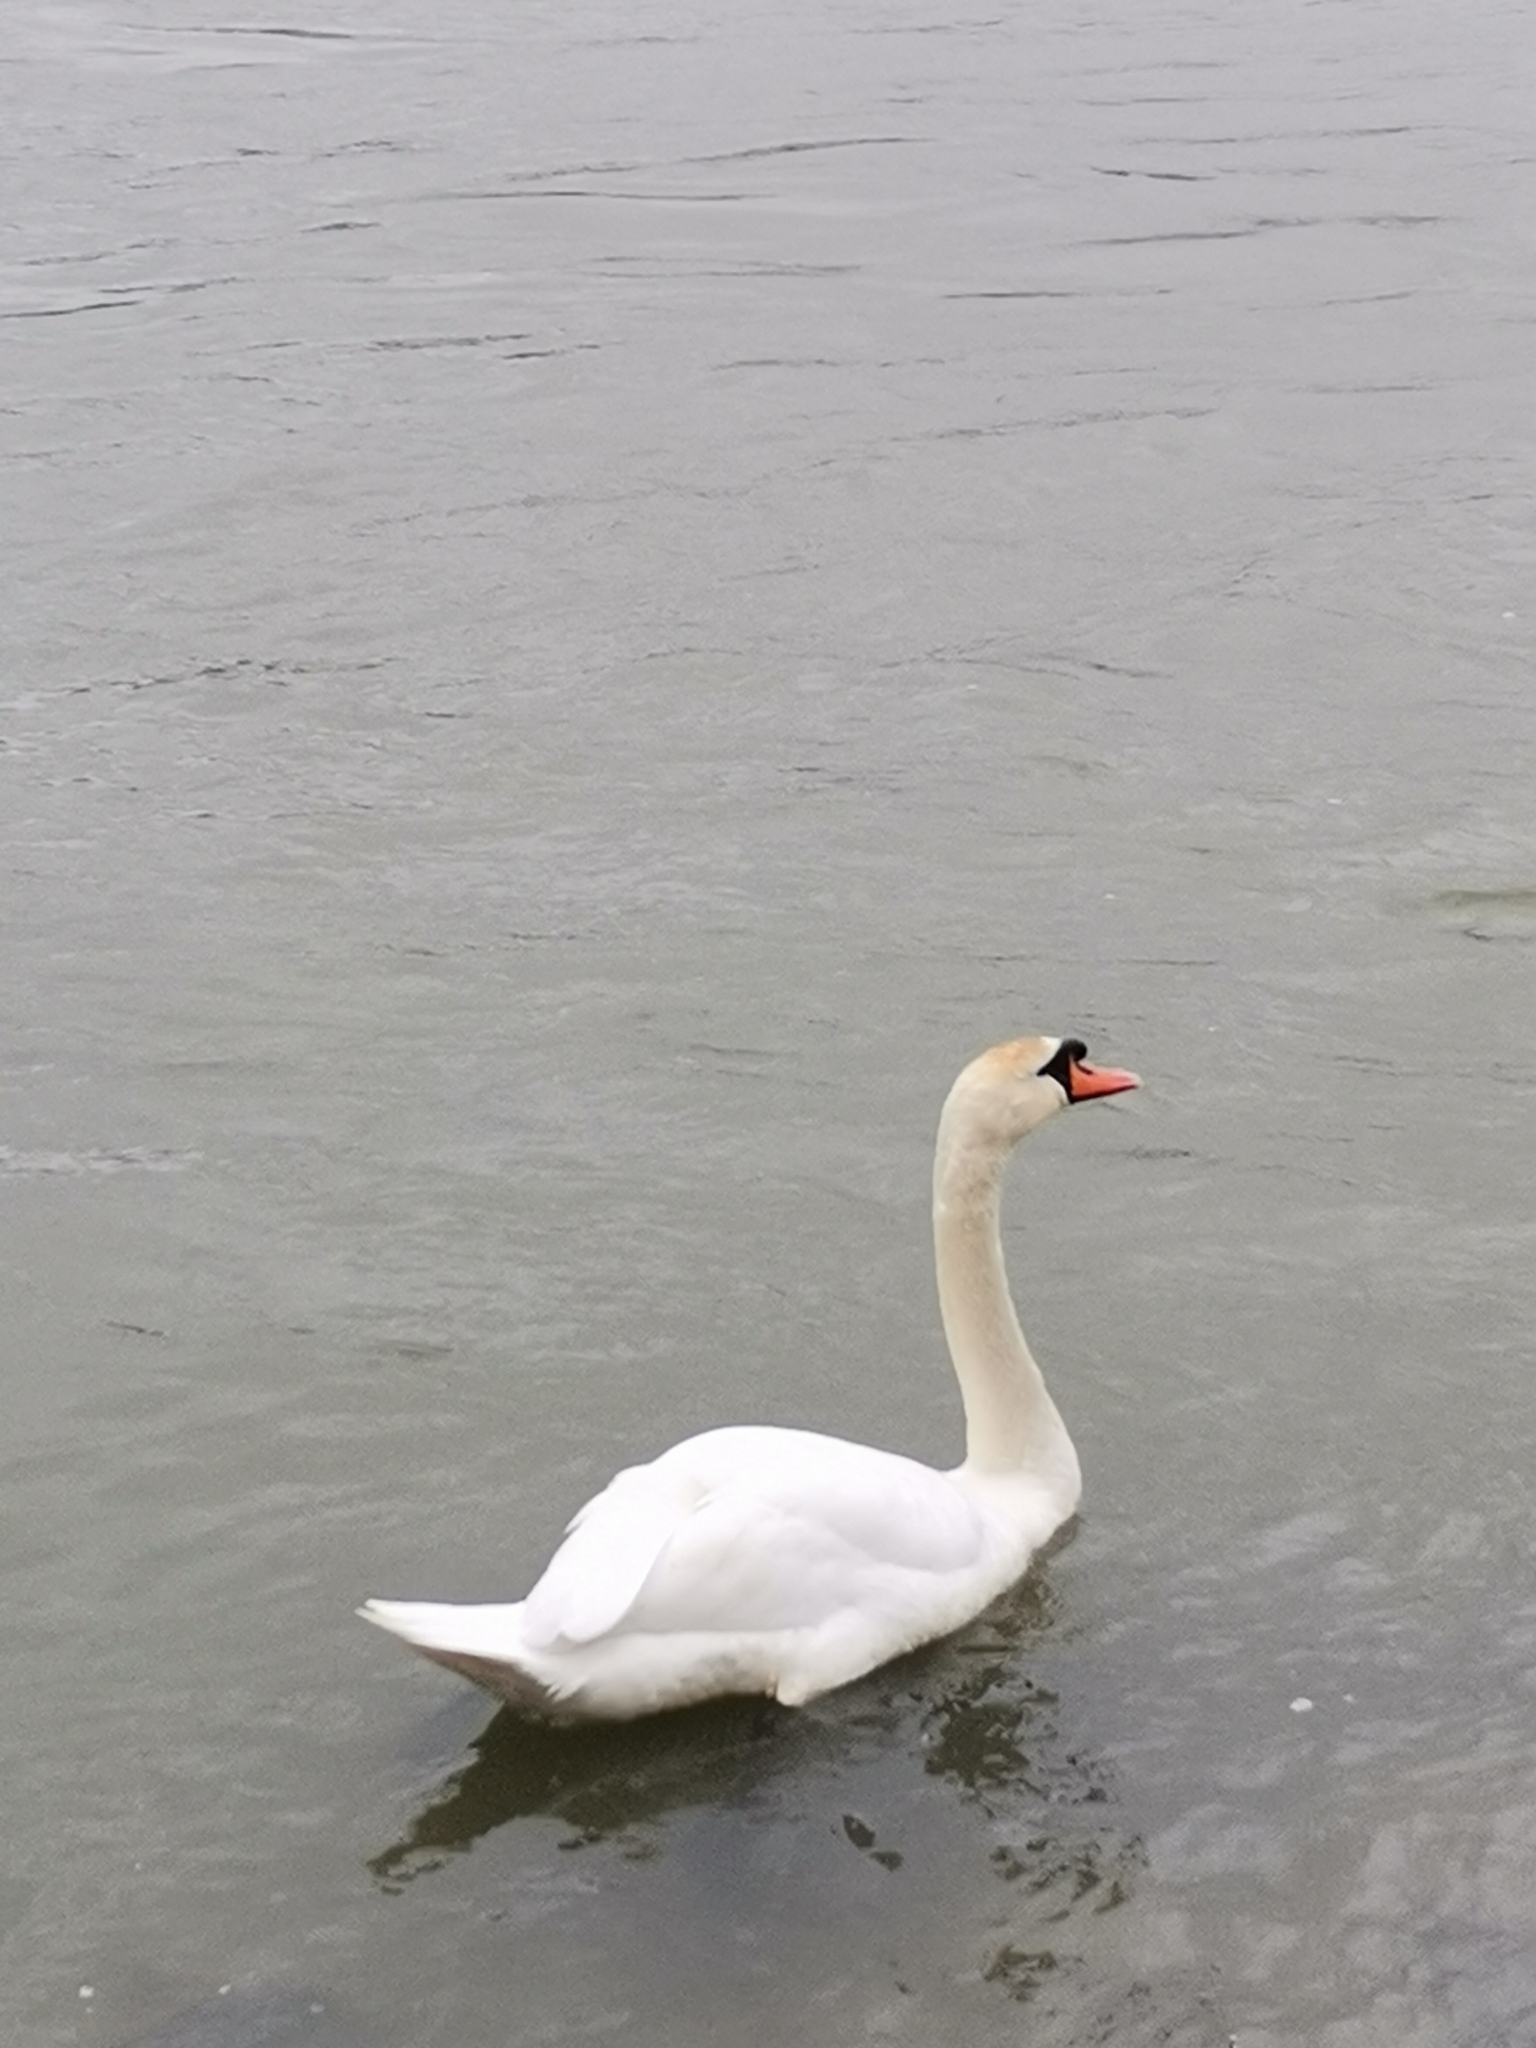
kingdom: Animalia
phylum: Chordata
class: Aves
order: Anseriformes
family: Anatidae
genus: Cygnus
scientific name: Cygnus olor
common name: Mute swan
